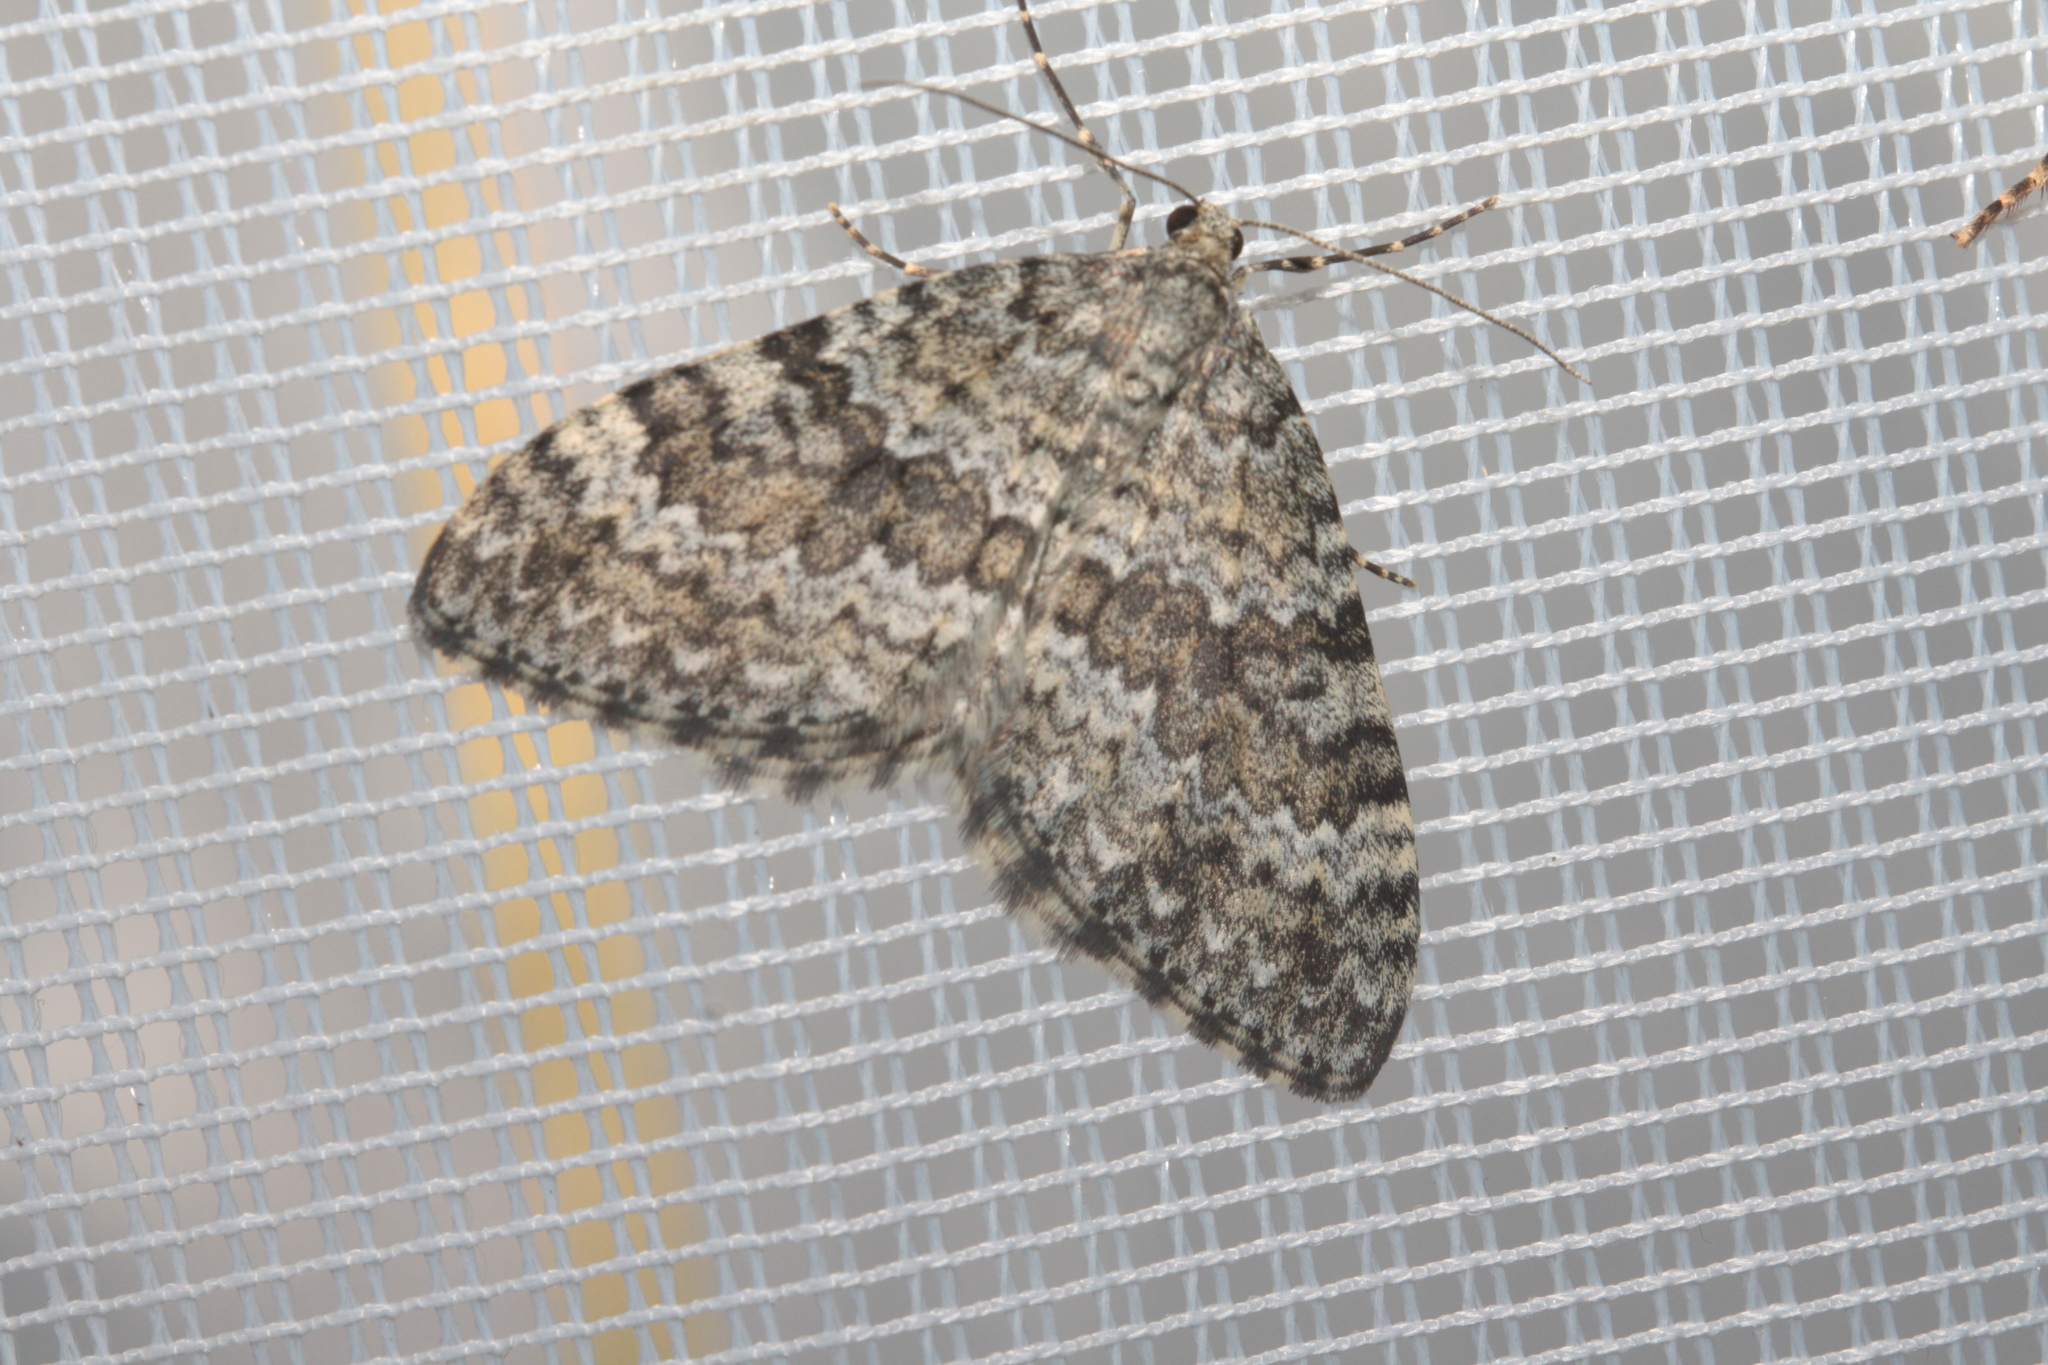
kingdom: Animalia
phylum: Arthropoda
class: Insecta
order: Lepidoptera
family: Geometridae
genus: Entephria
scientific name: Entephria caesiata
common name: Grey mountain moth
